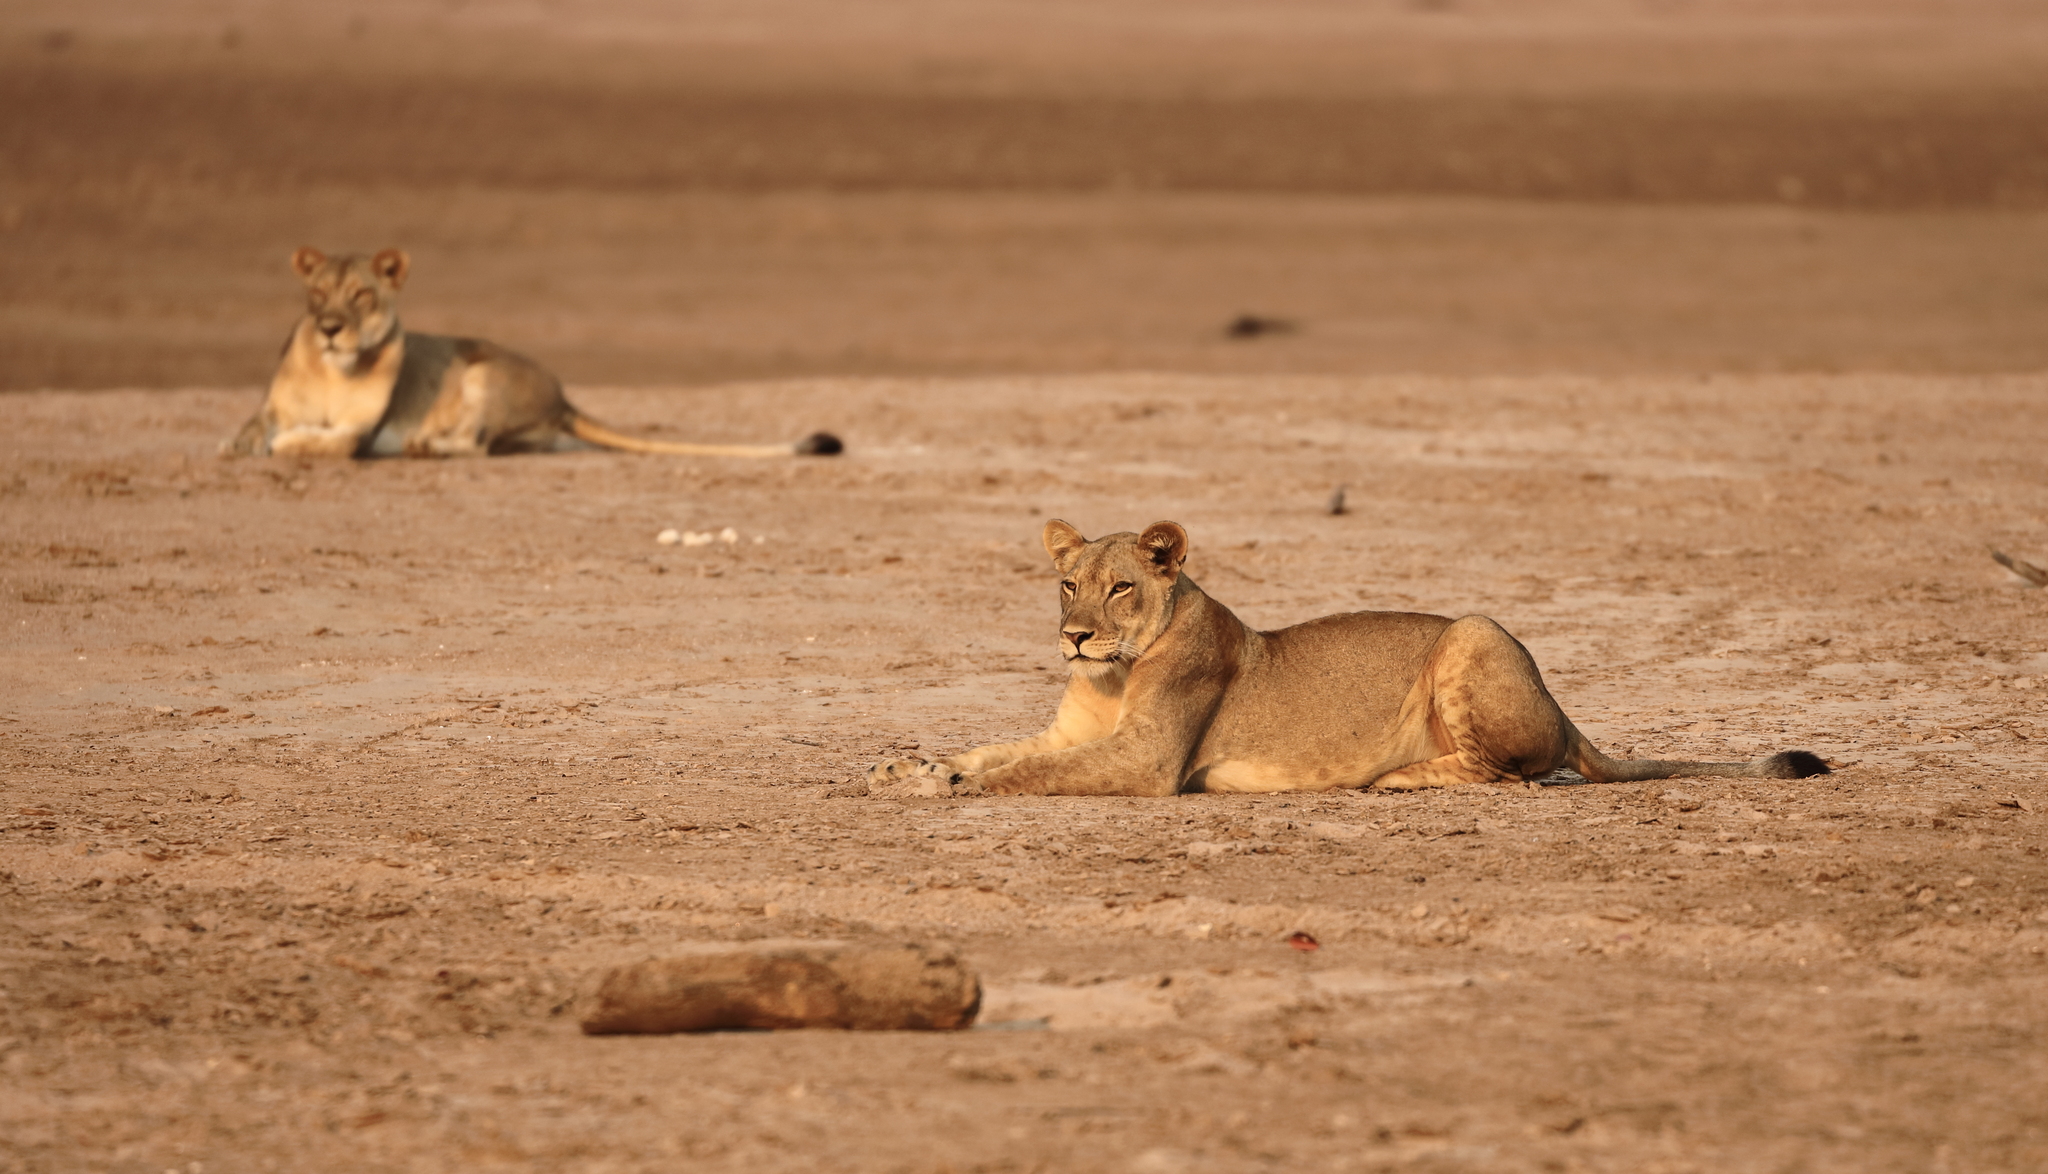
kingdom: Animalia
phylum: Chordata
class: Mammalia
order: Carnivora
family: Felidae
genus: Panthera
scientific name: Panthera leo
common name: Lion
